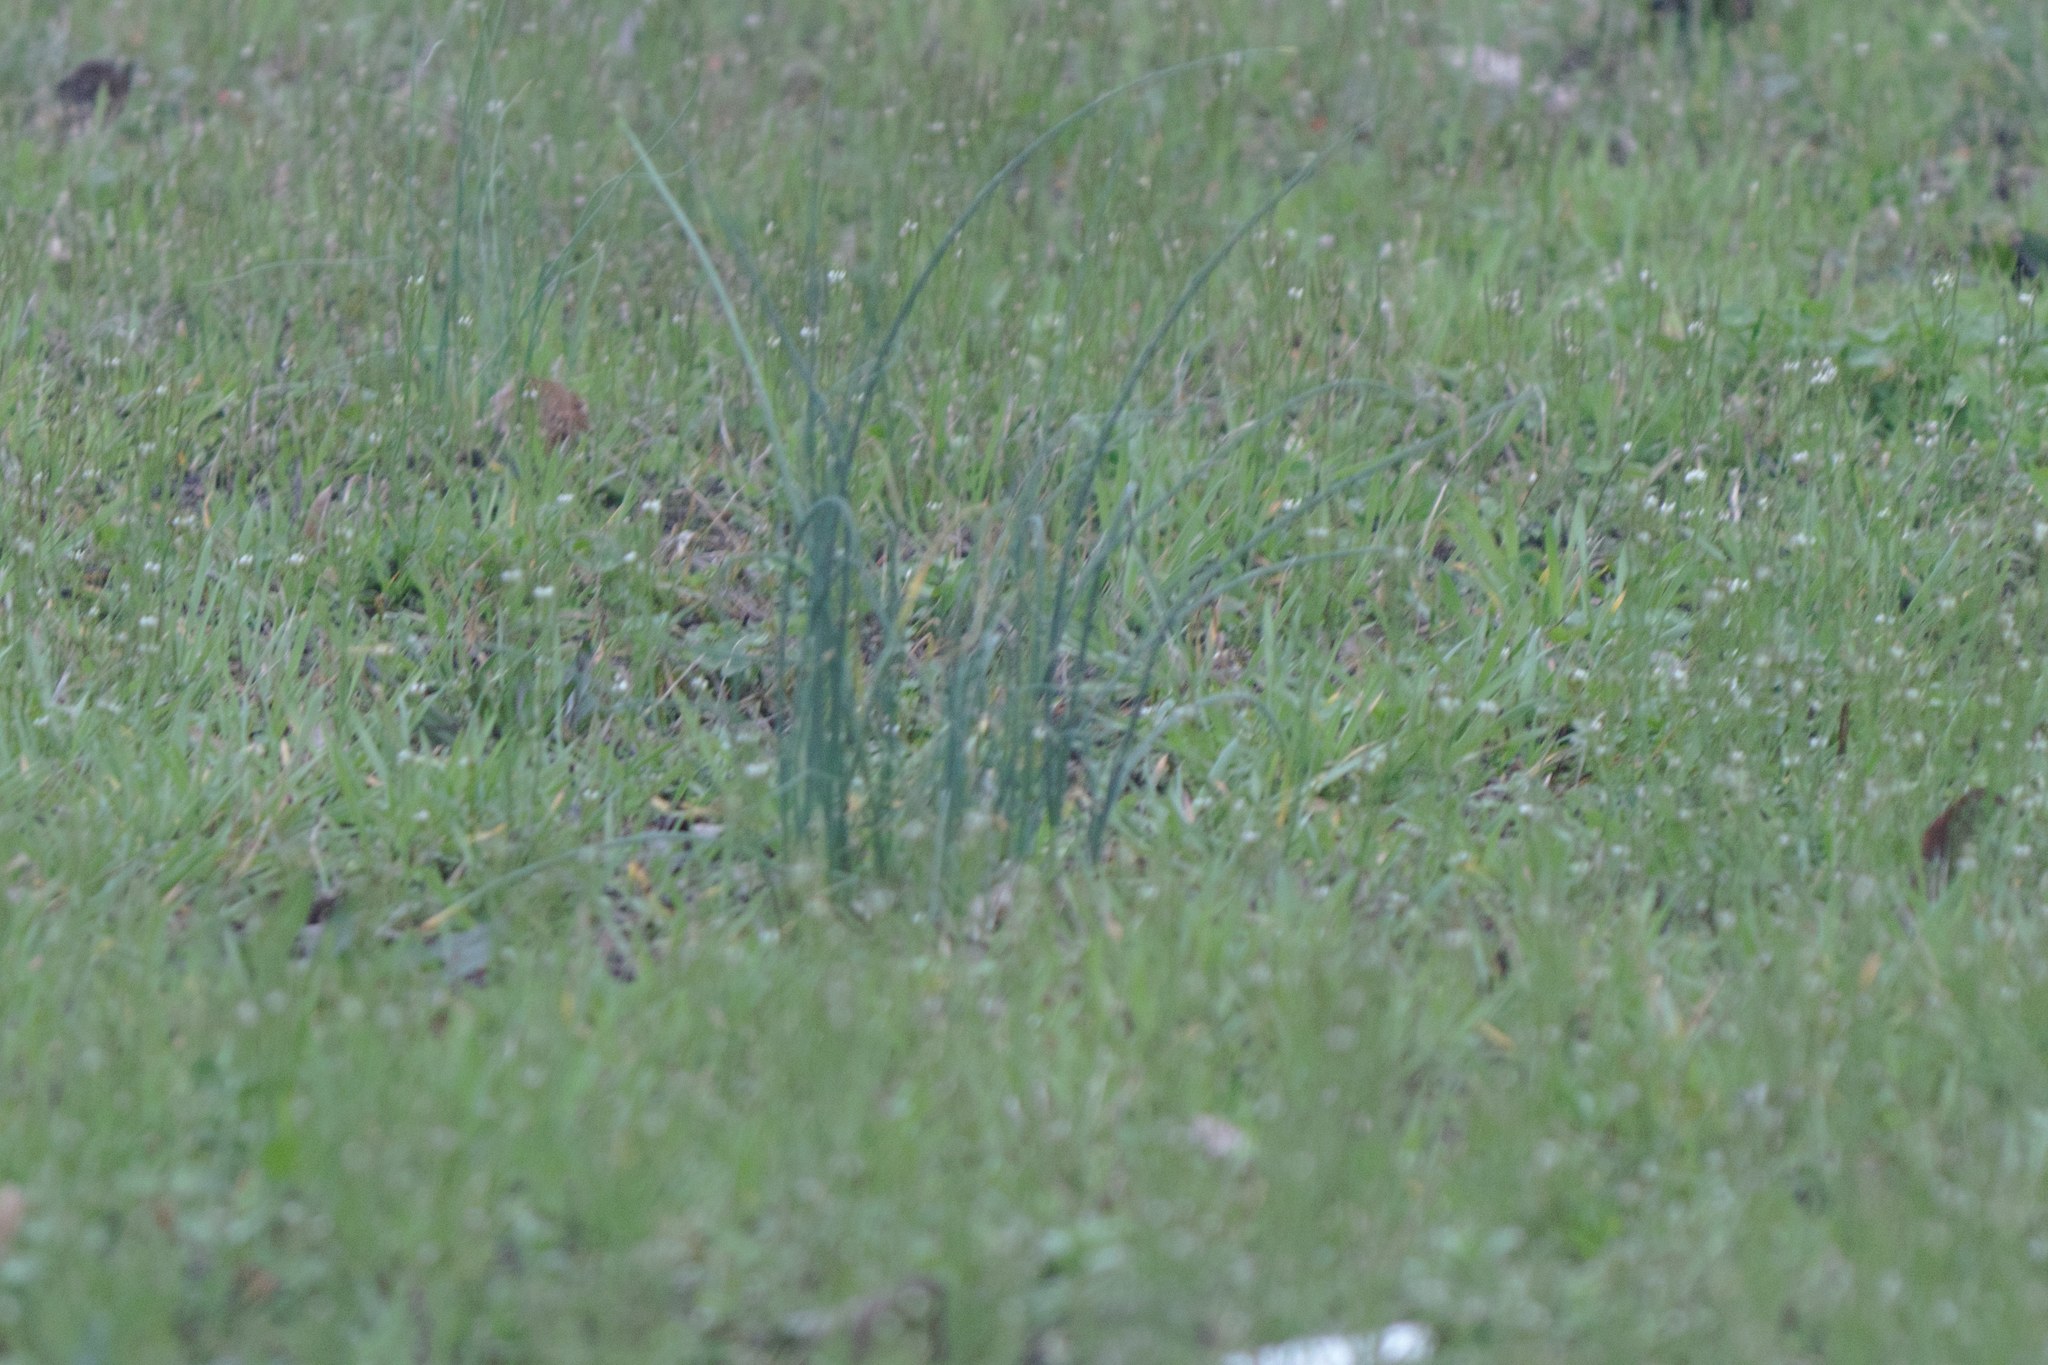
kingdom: Plantae
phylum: Tracheophyta
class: Liliopsida
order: Asparagales
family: Amaryllidaceae
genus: Allium
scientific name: Allium vineale
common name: Crow garlic
